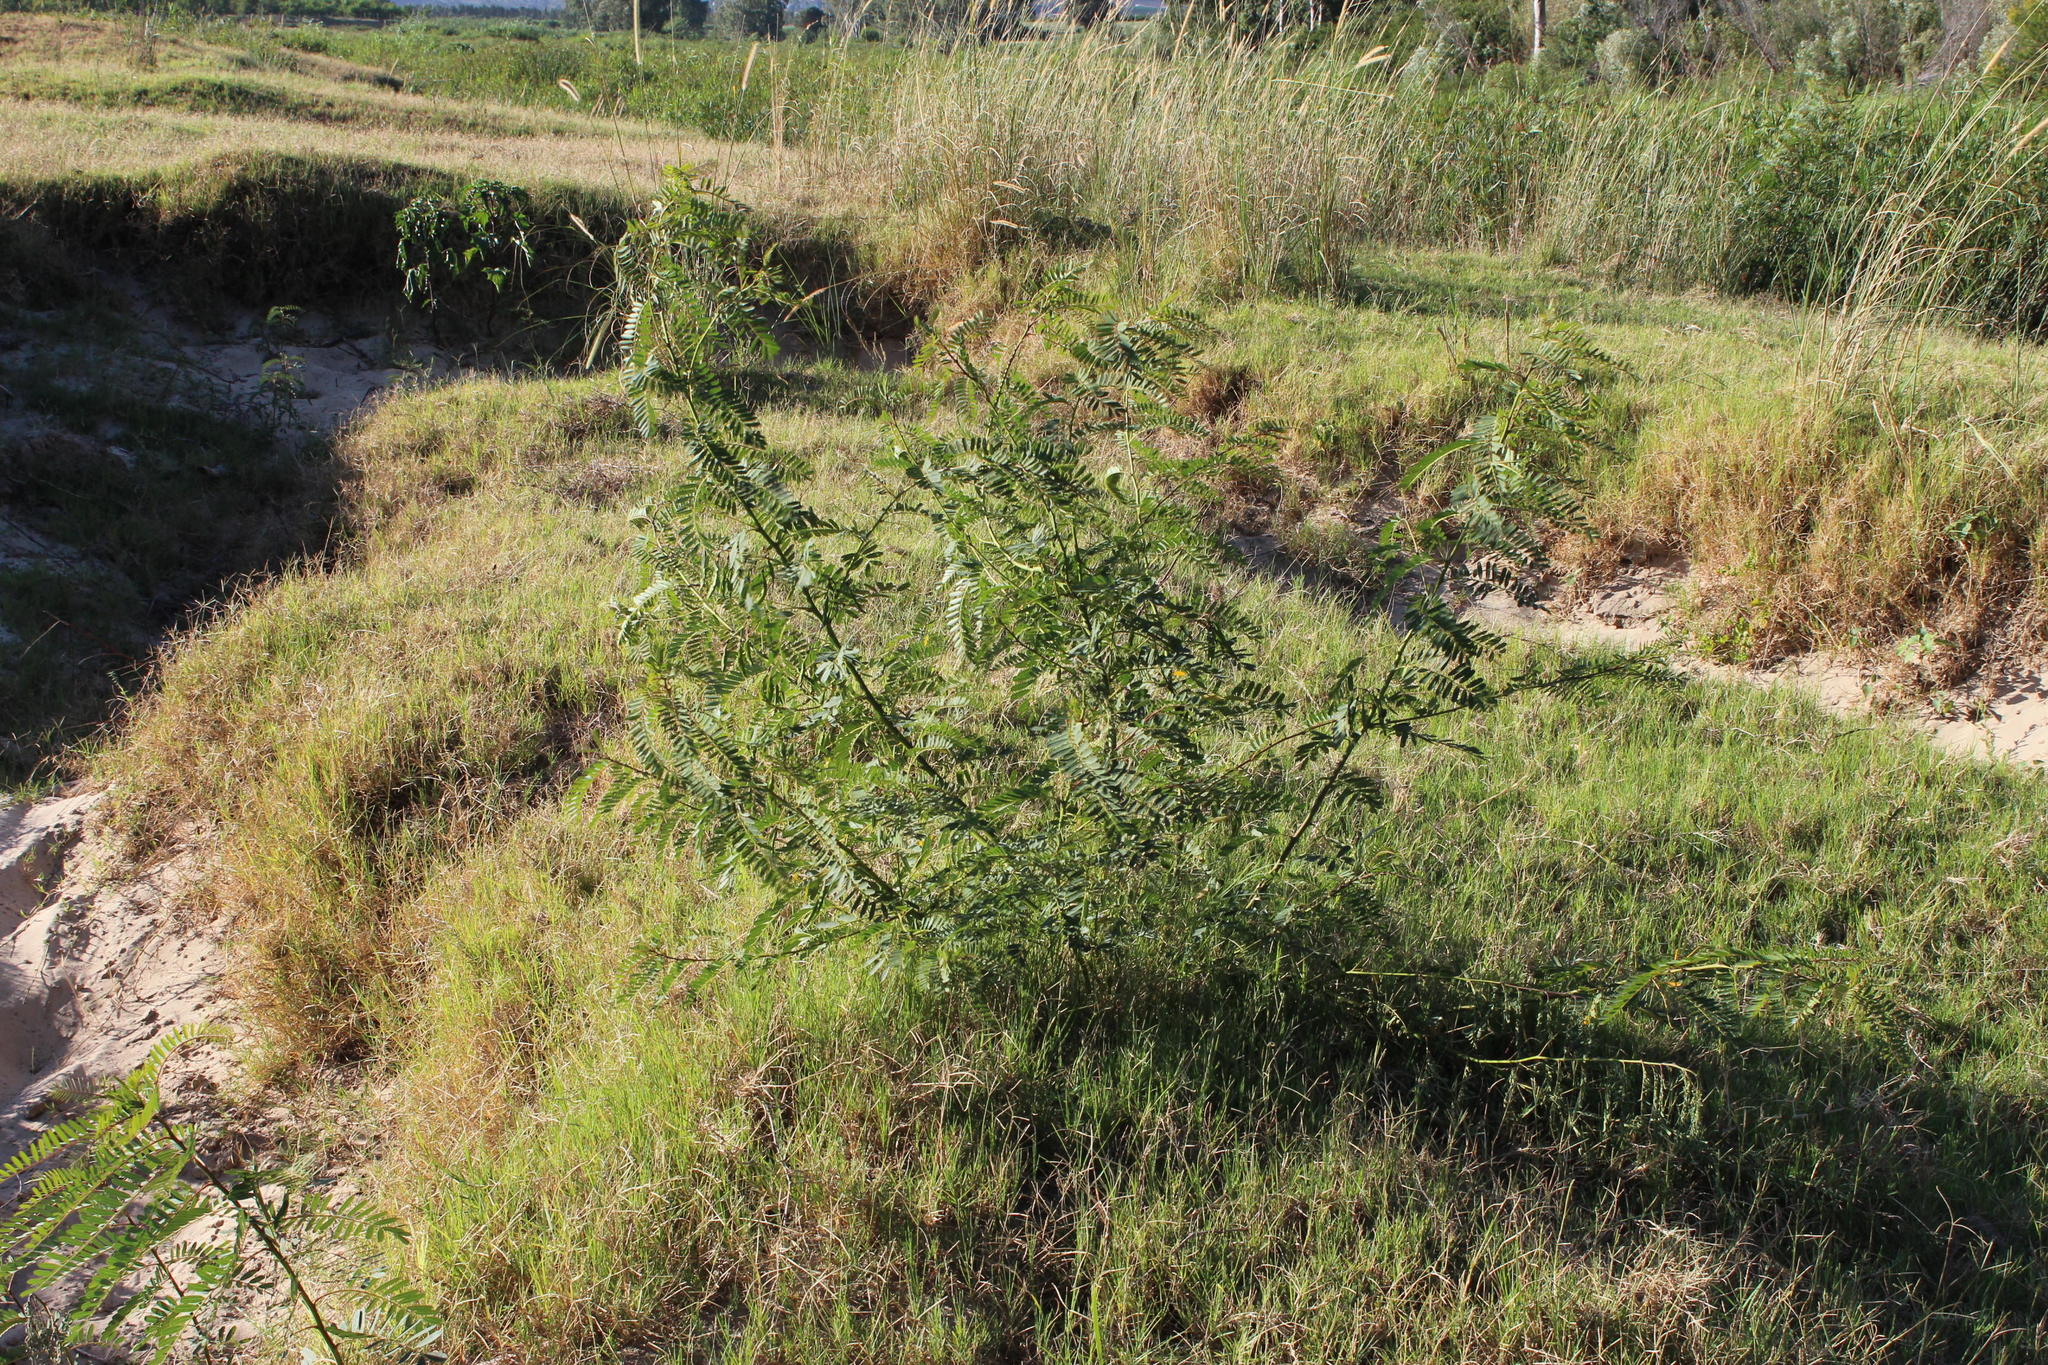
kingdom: Plantae
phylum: Tracheophyta
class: Magnoliopsida
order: Fabales
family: Fabaceae
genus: Sesbania
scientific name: Sesbania punicea
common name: Rattlebox
